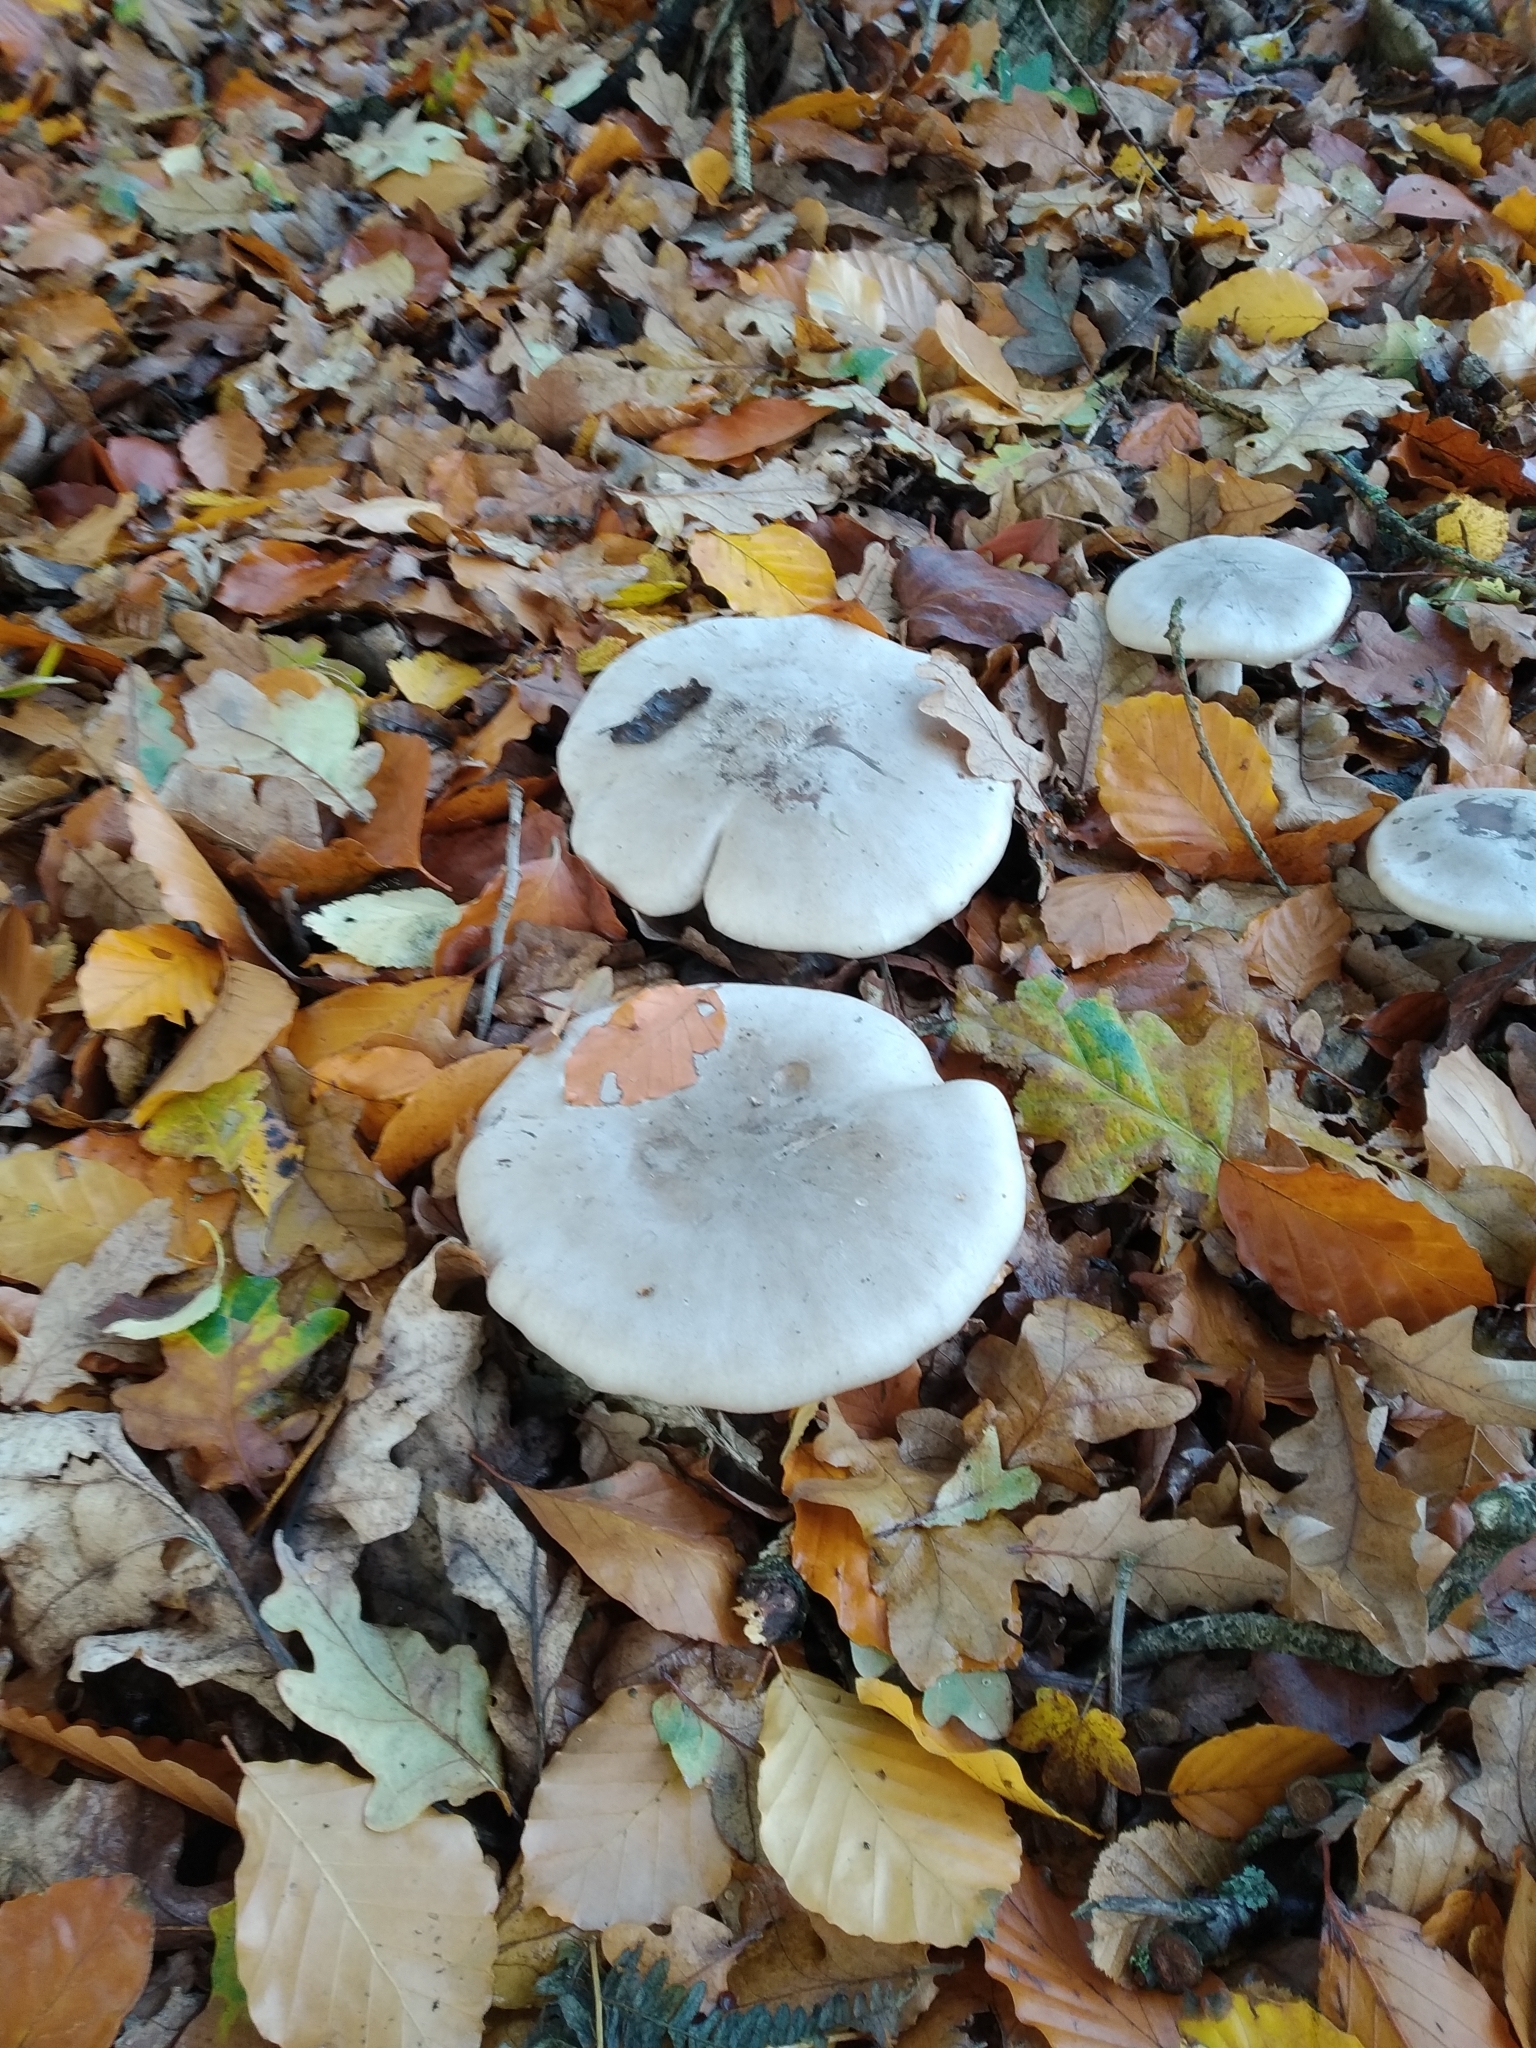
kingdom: Fungi
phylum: Basidiomycota
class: Agaricomycetes
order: Agaricales
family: Tricholomataceae
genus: Clitocybe
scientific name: Clitocybe nebularis
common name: Clouded agaric
